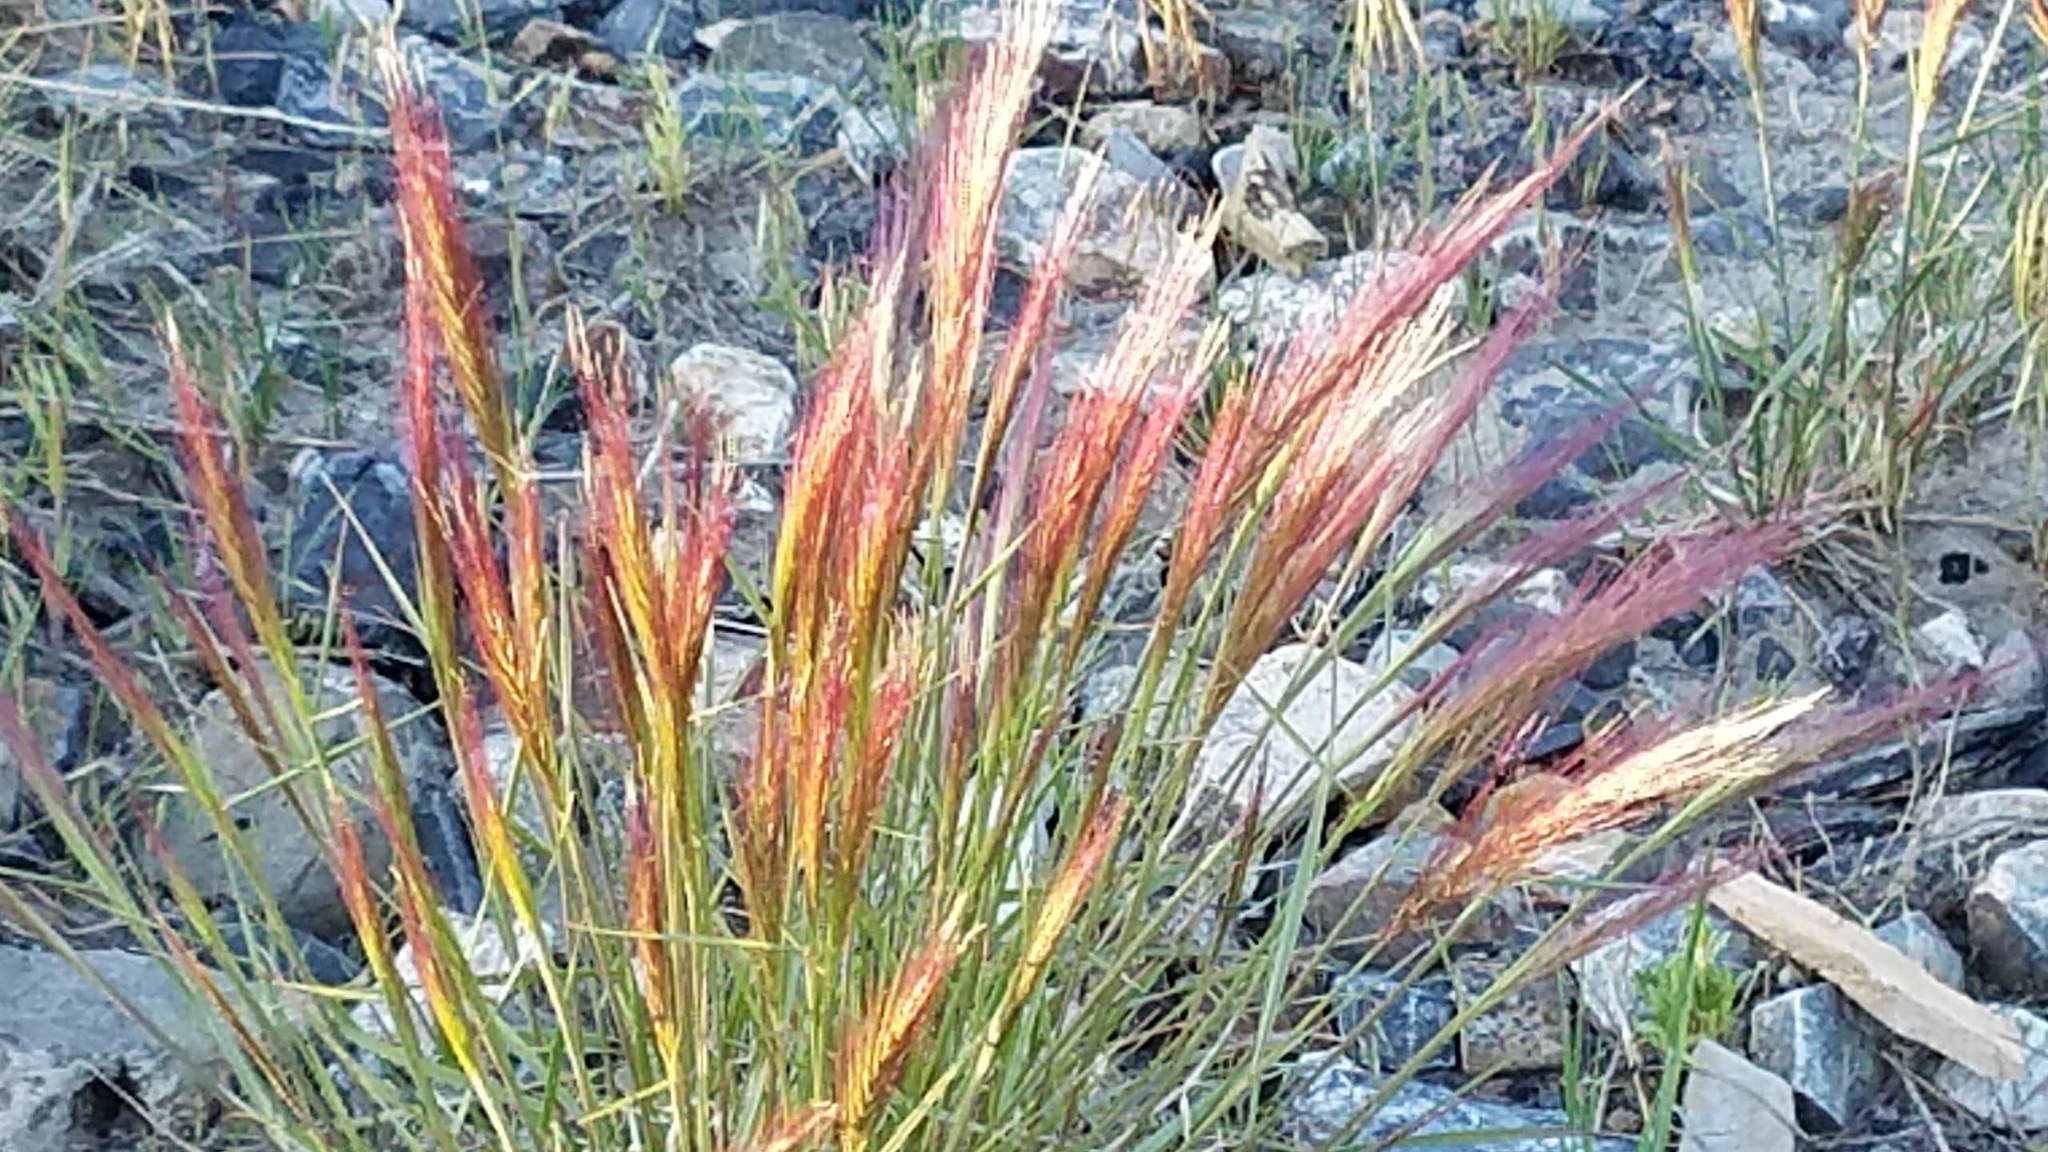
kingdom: Plantae
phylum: Tracheophyta
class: Liliopsida
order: Poales
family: Poaceae
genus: Elymus
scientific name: Elymus elymoides
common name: Bottlebrush squirreltail
